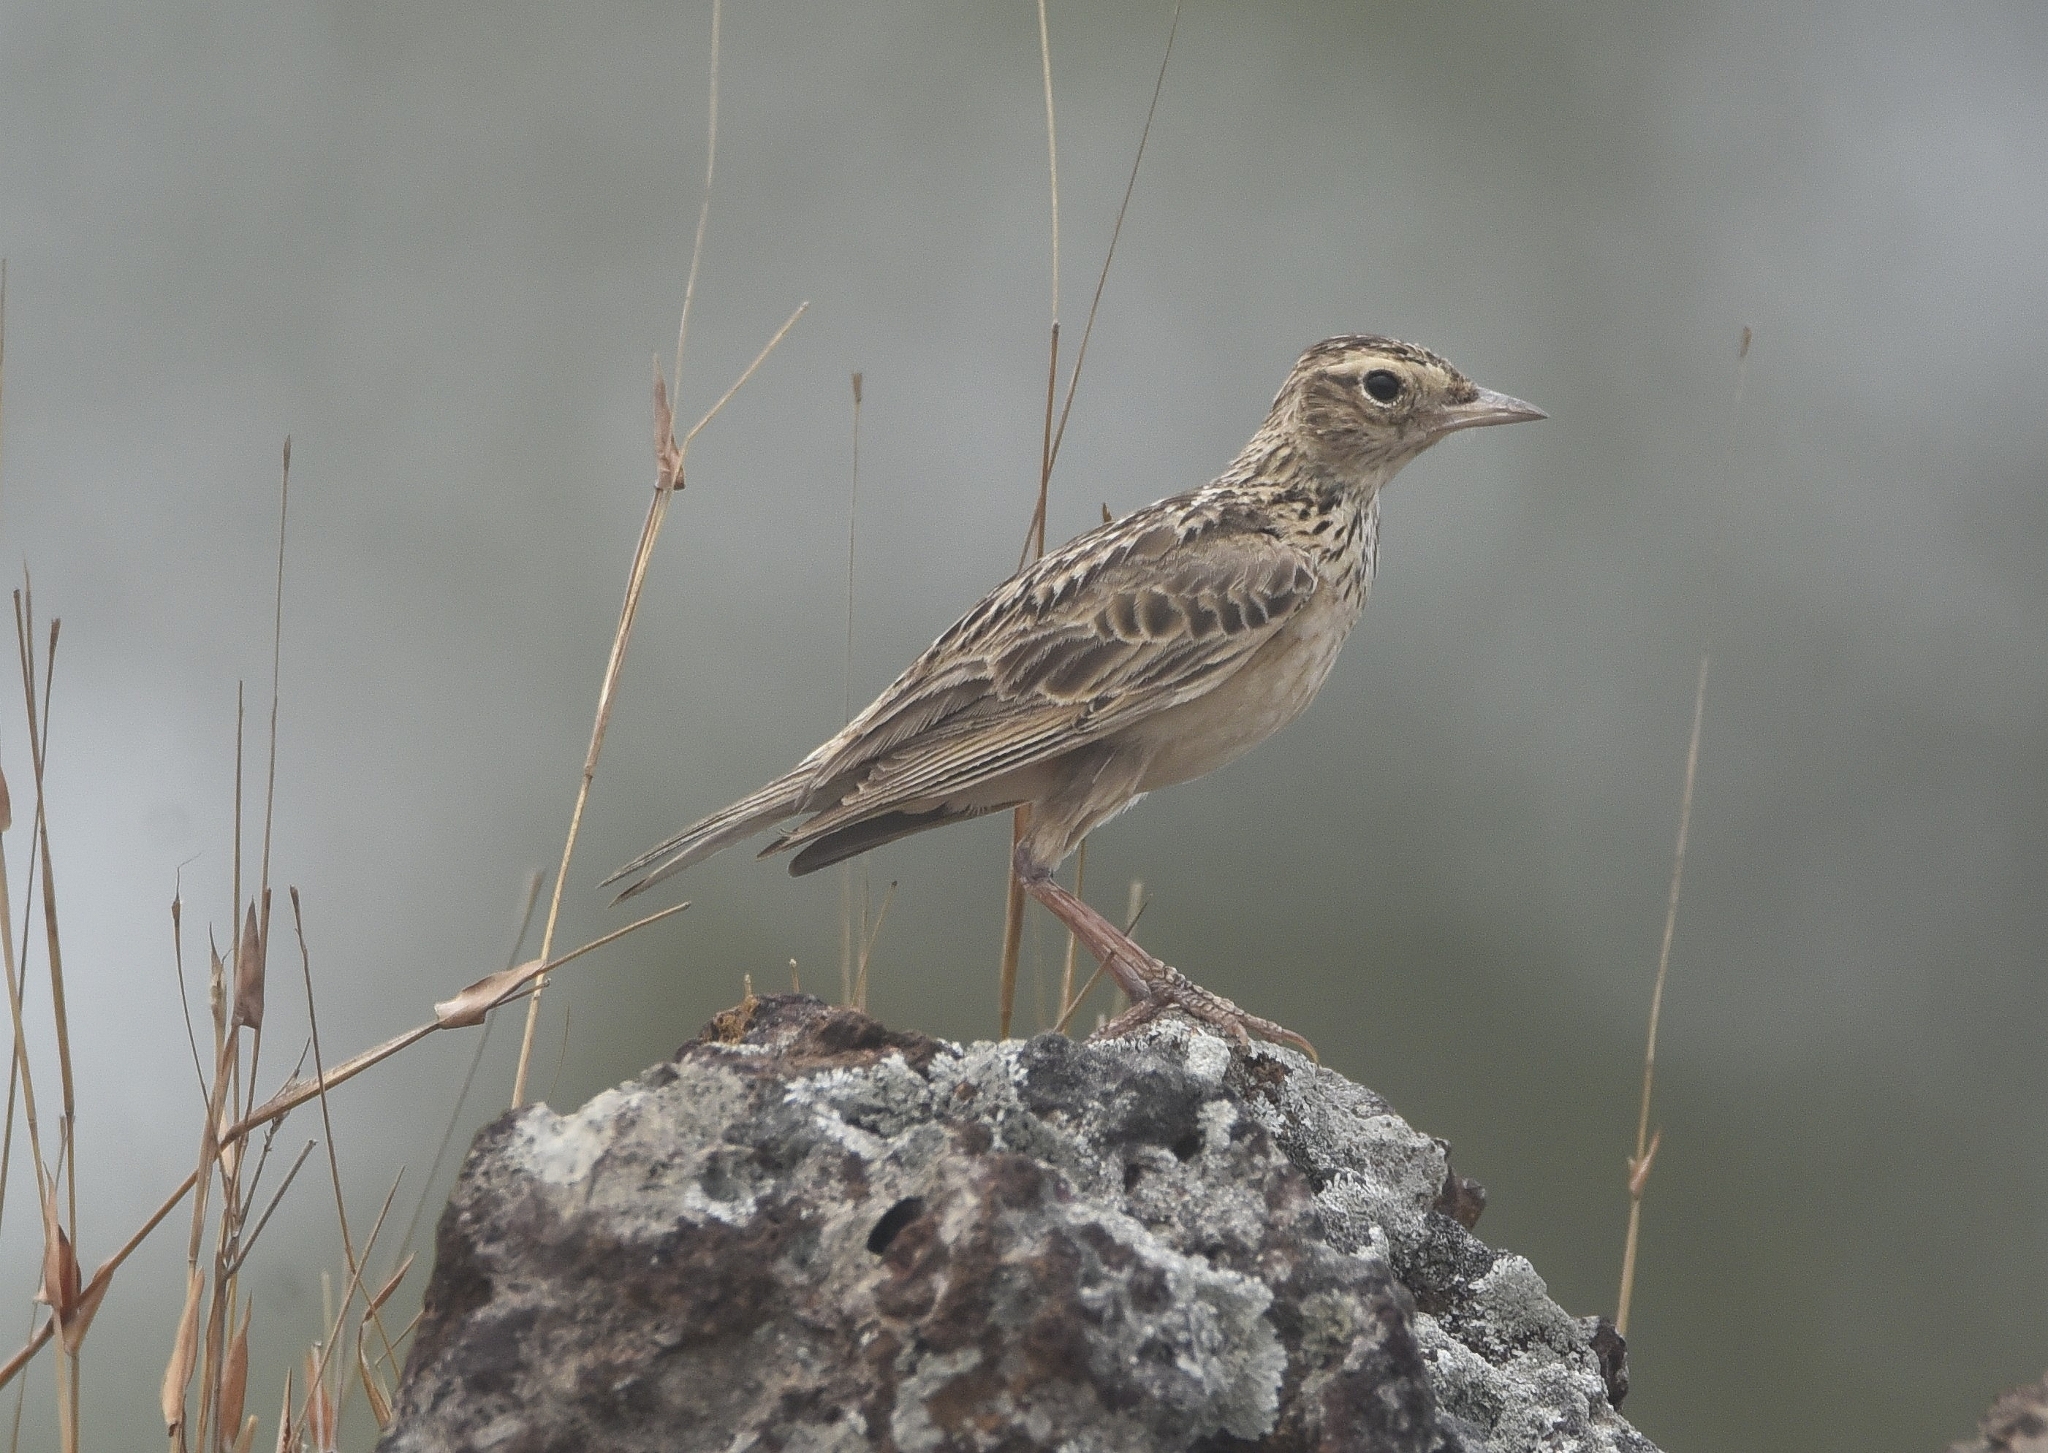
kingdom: Animalia
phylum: Chordata
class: Aves
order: Passeriformes
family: Alaudidae
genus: Alauda
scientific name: Alauda gulgula
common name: Oriental skylark
